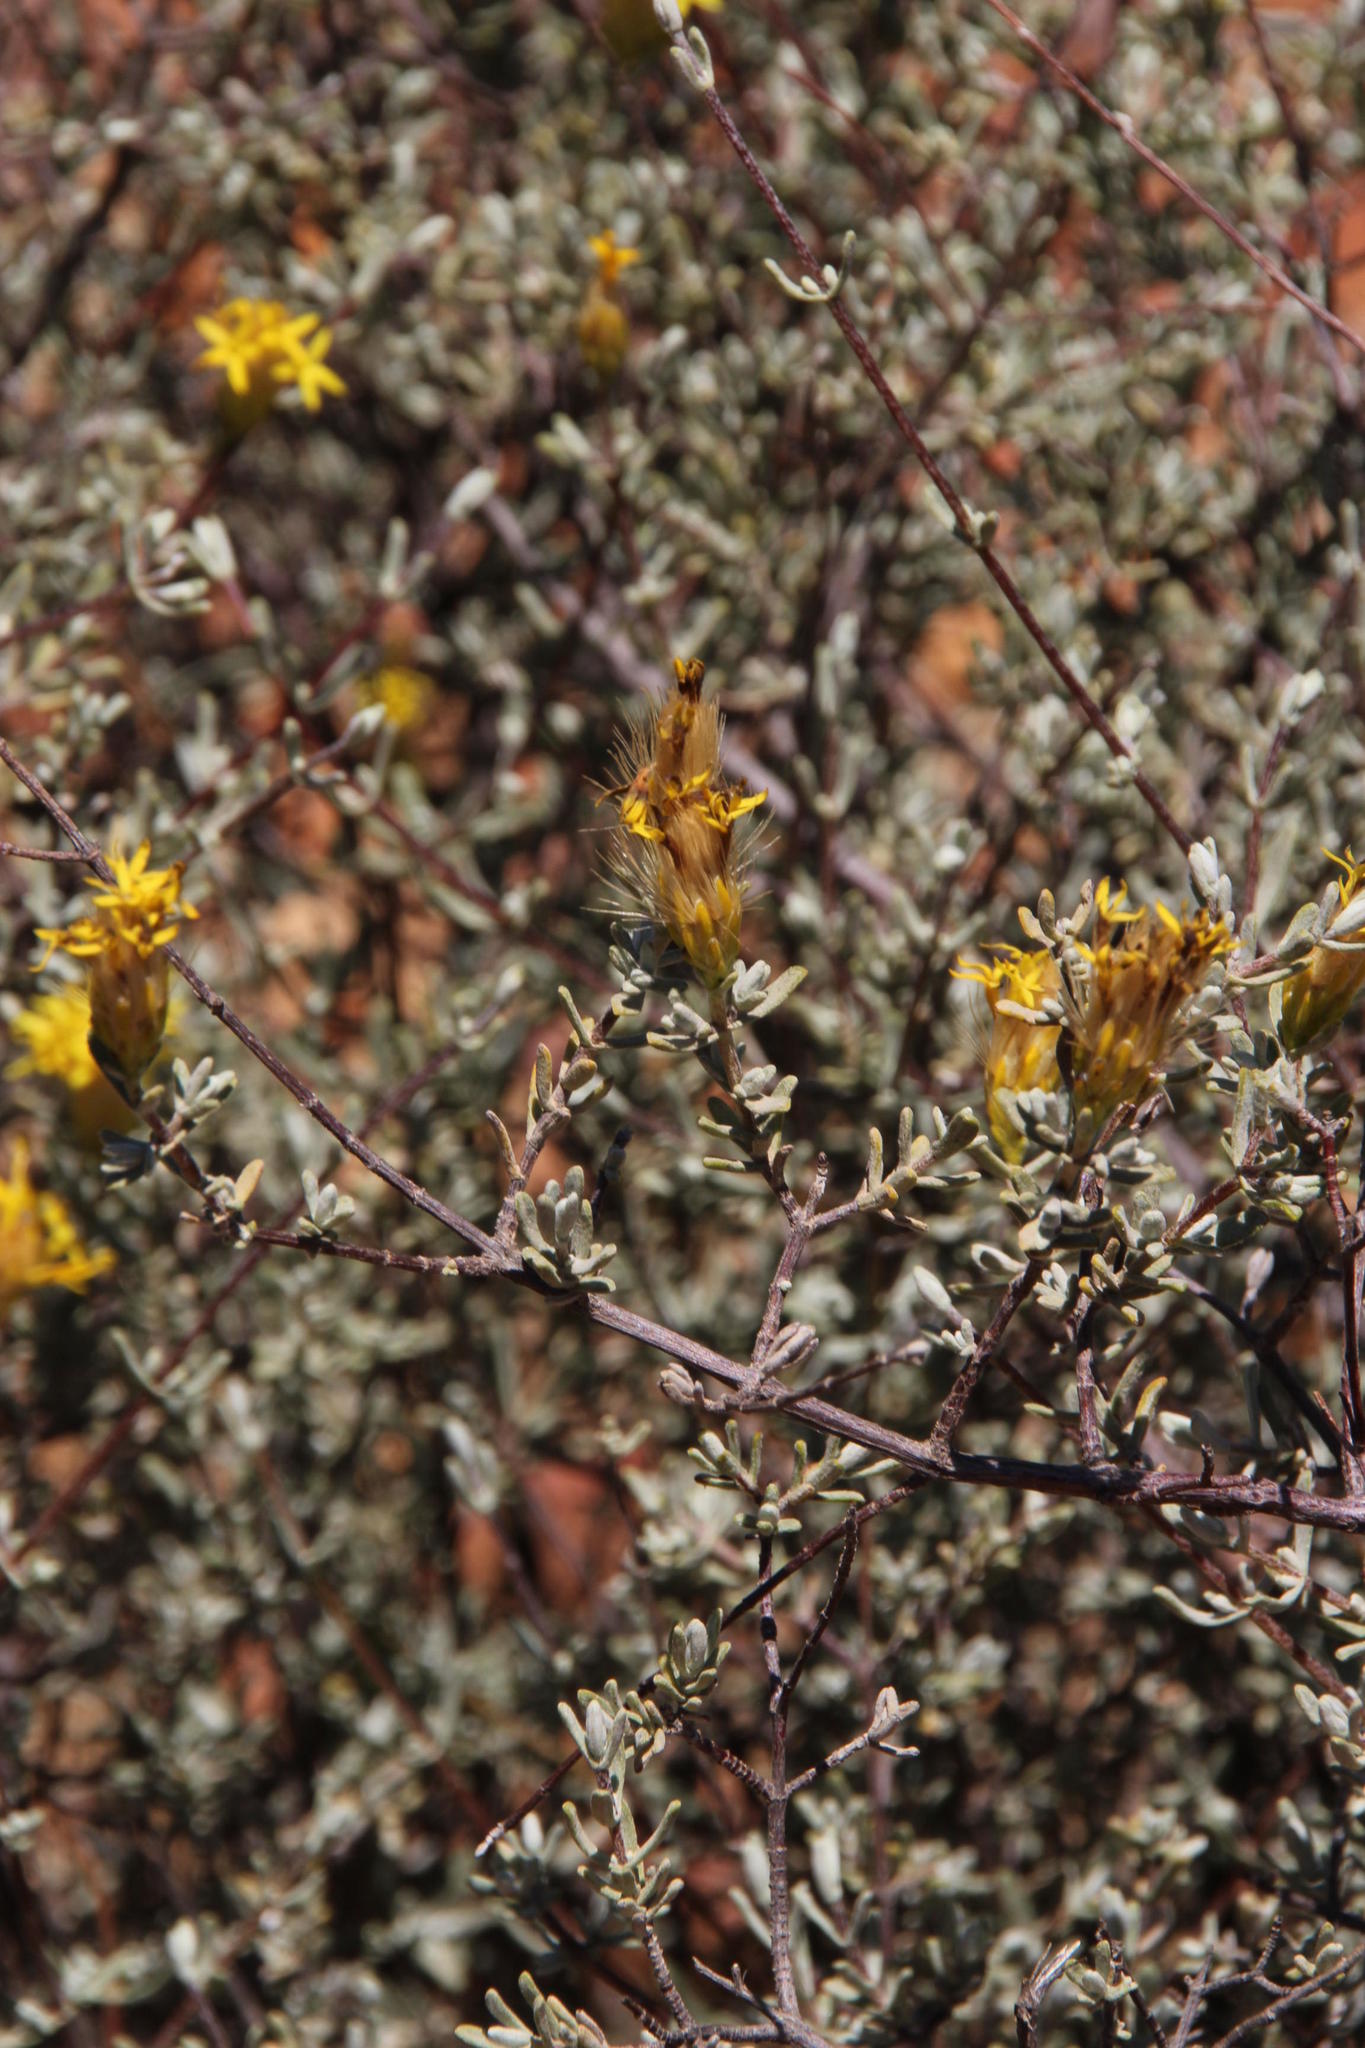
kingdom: Plantae
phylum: Tracheophyta
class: Magnoliopsida
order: Asterales
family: Asteraceae
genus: Pteronia
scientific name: Pteronia incana
